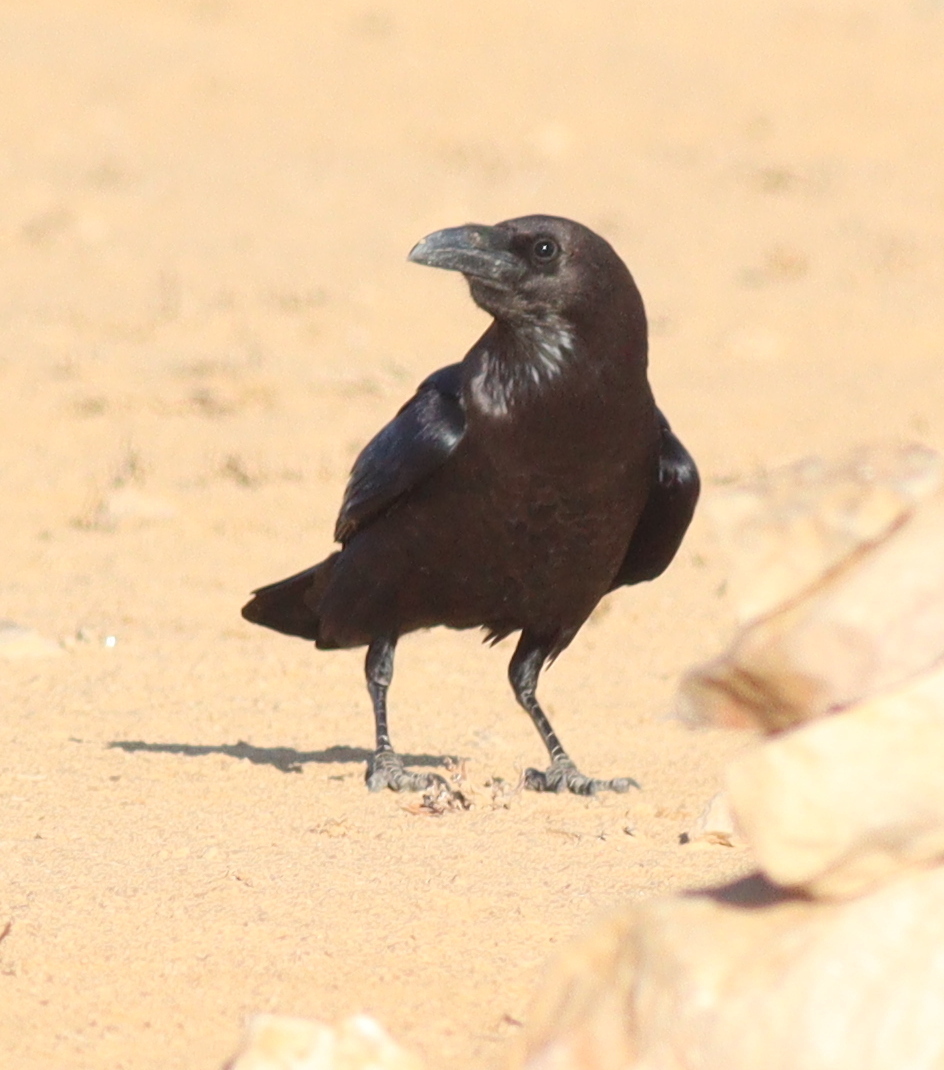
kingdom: Animalia
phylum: Chordata
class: Aves
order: Passeriformes
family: Corvidae
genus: Corvus
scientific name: Corvus ruficollis
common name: Brown-necked raven
